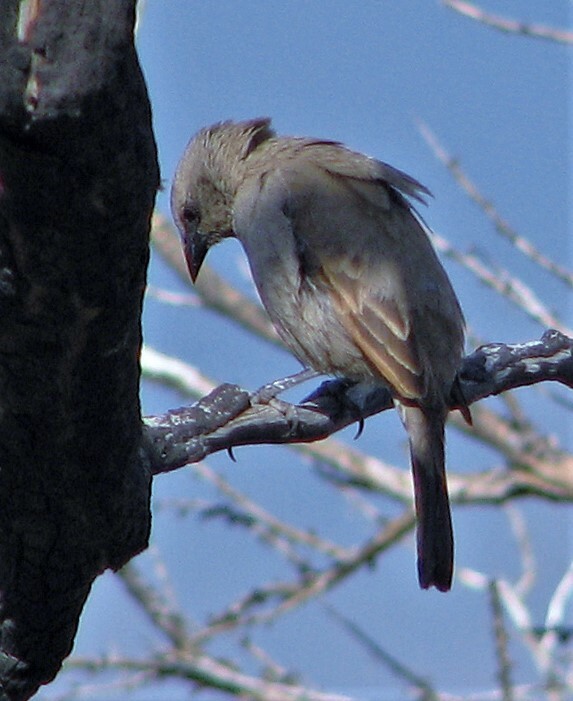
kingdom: Animalia
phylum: Chordata
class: Aves
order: Passeriformes
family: Icteridae
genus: Agelaioides
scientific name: Agelaioides badius
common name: Baywing
